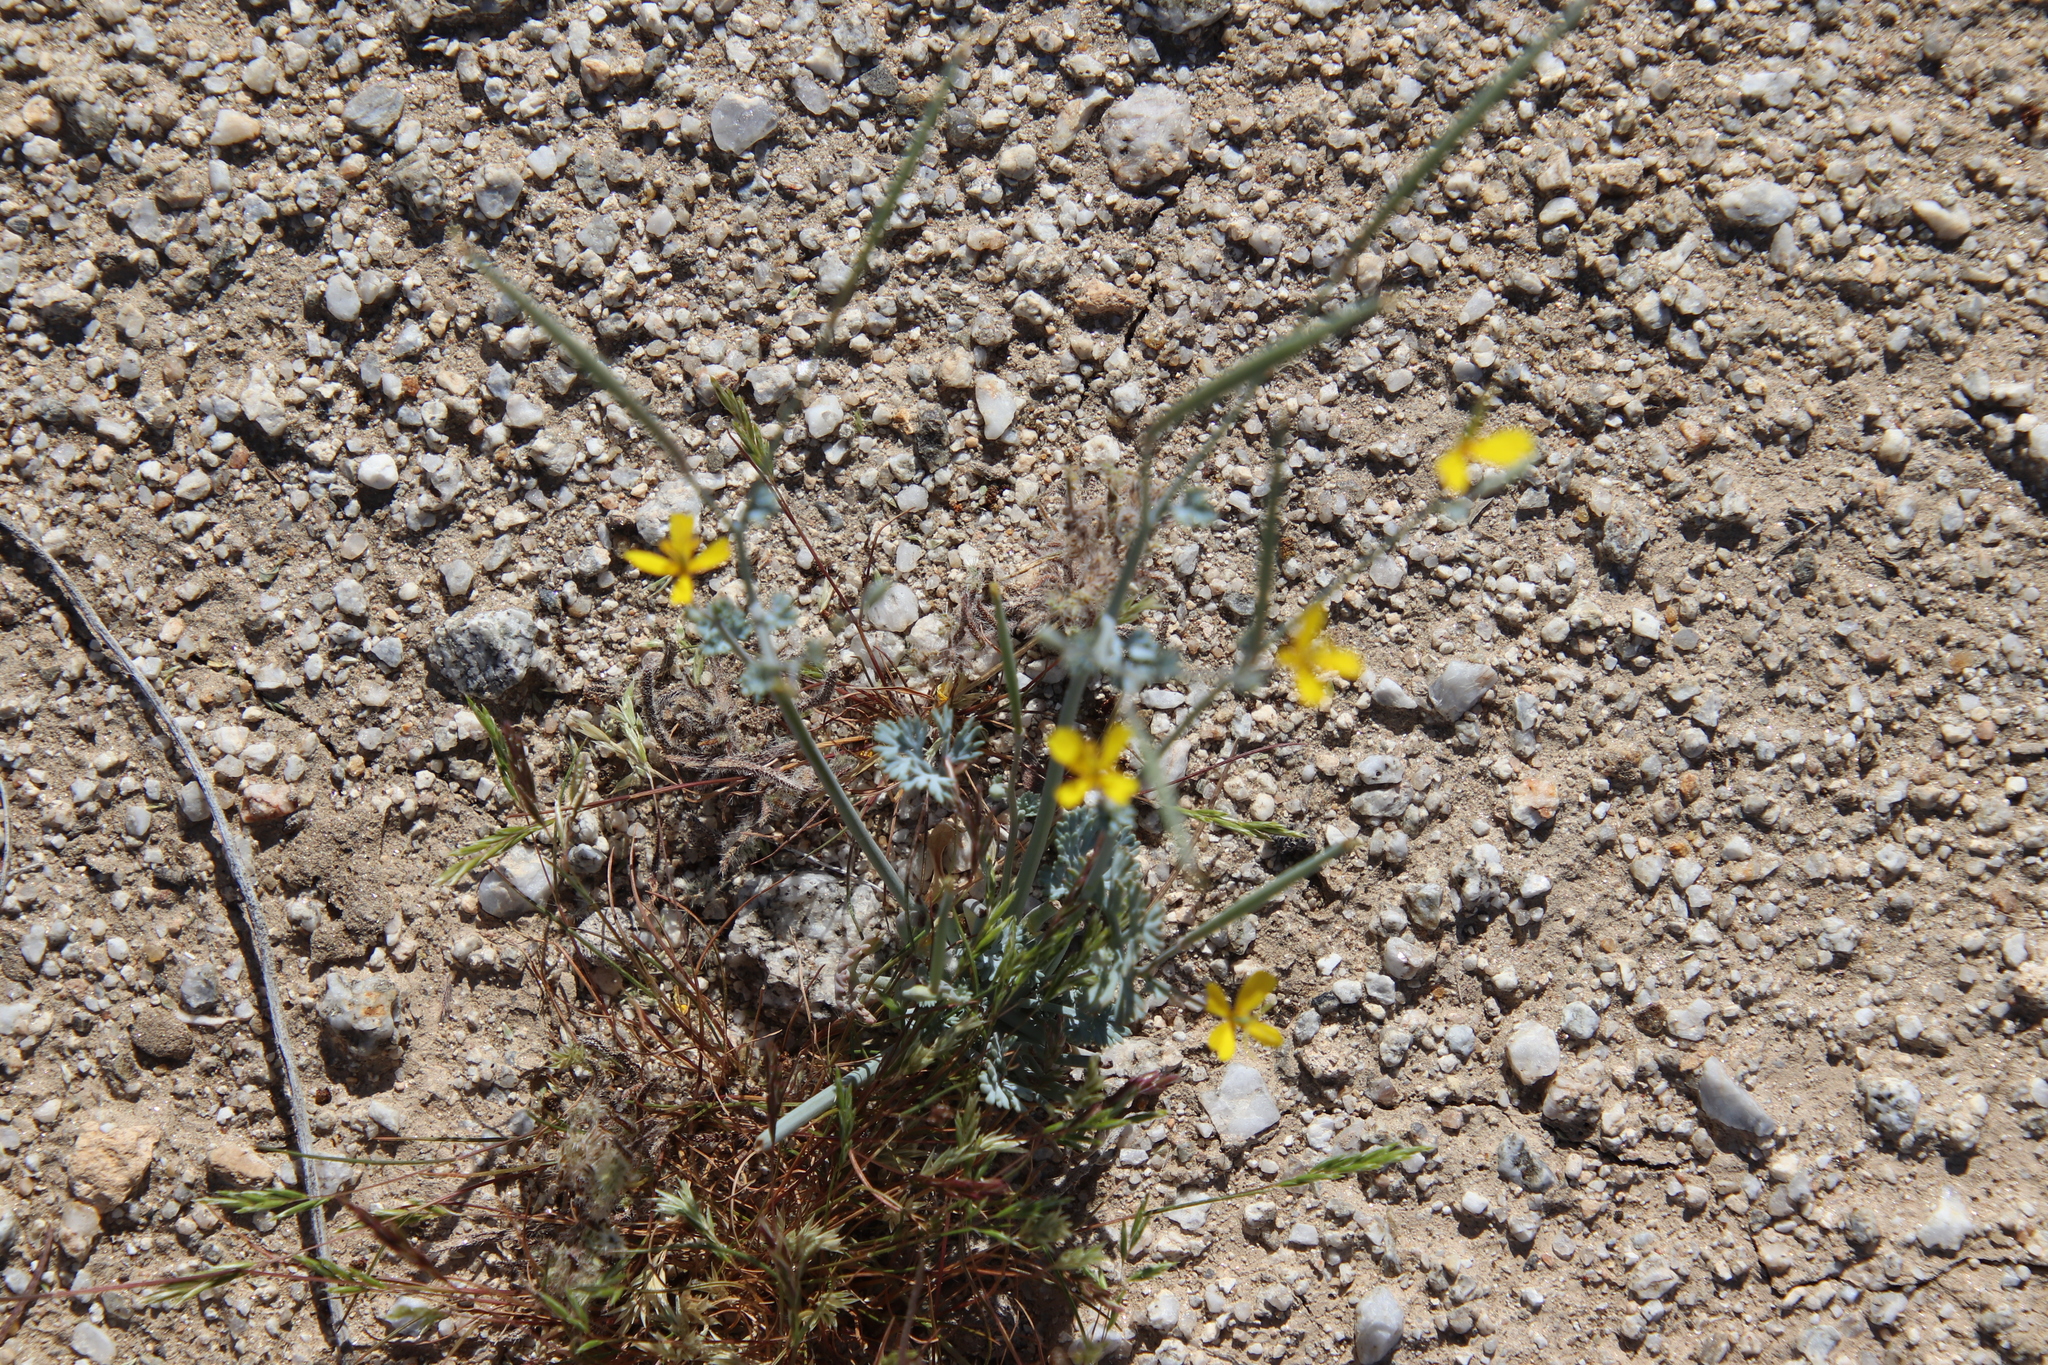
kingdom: Plantae
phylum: Tracheophyta
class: Magnoliopsida
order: Ranunculales
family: Papaveraceae
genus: Eschscholzia
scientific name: Eschscholzia minutiflora
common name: Small-flower california-poppy
